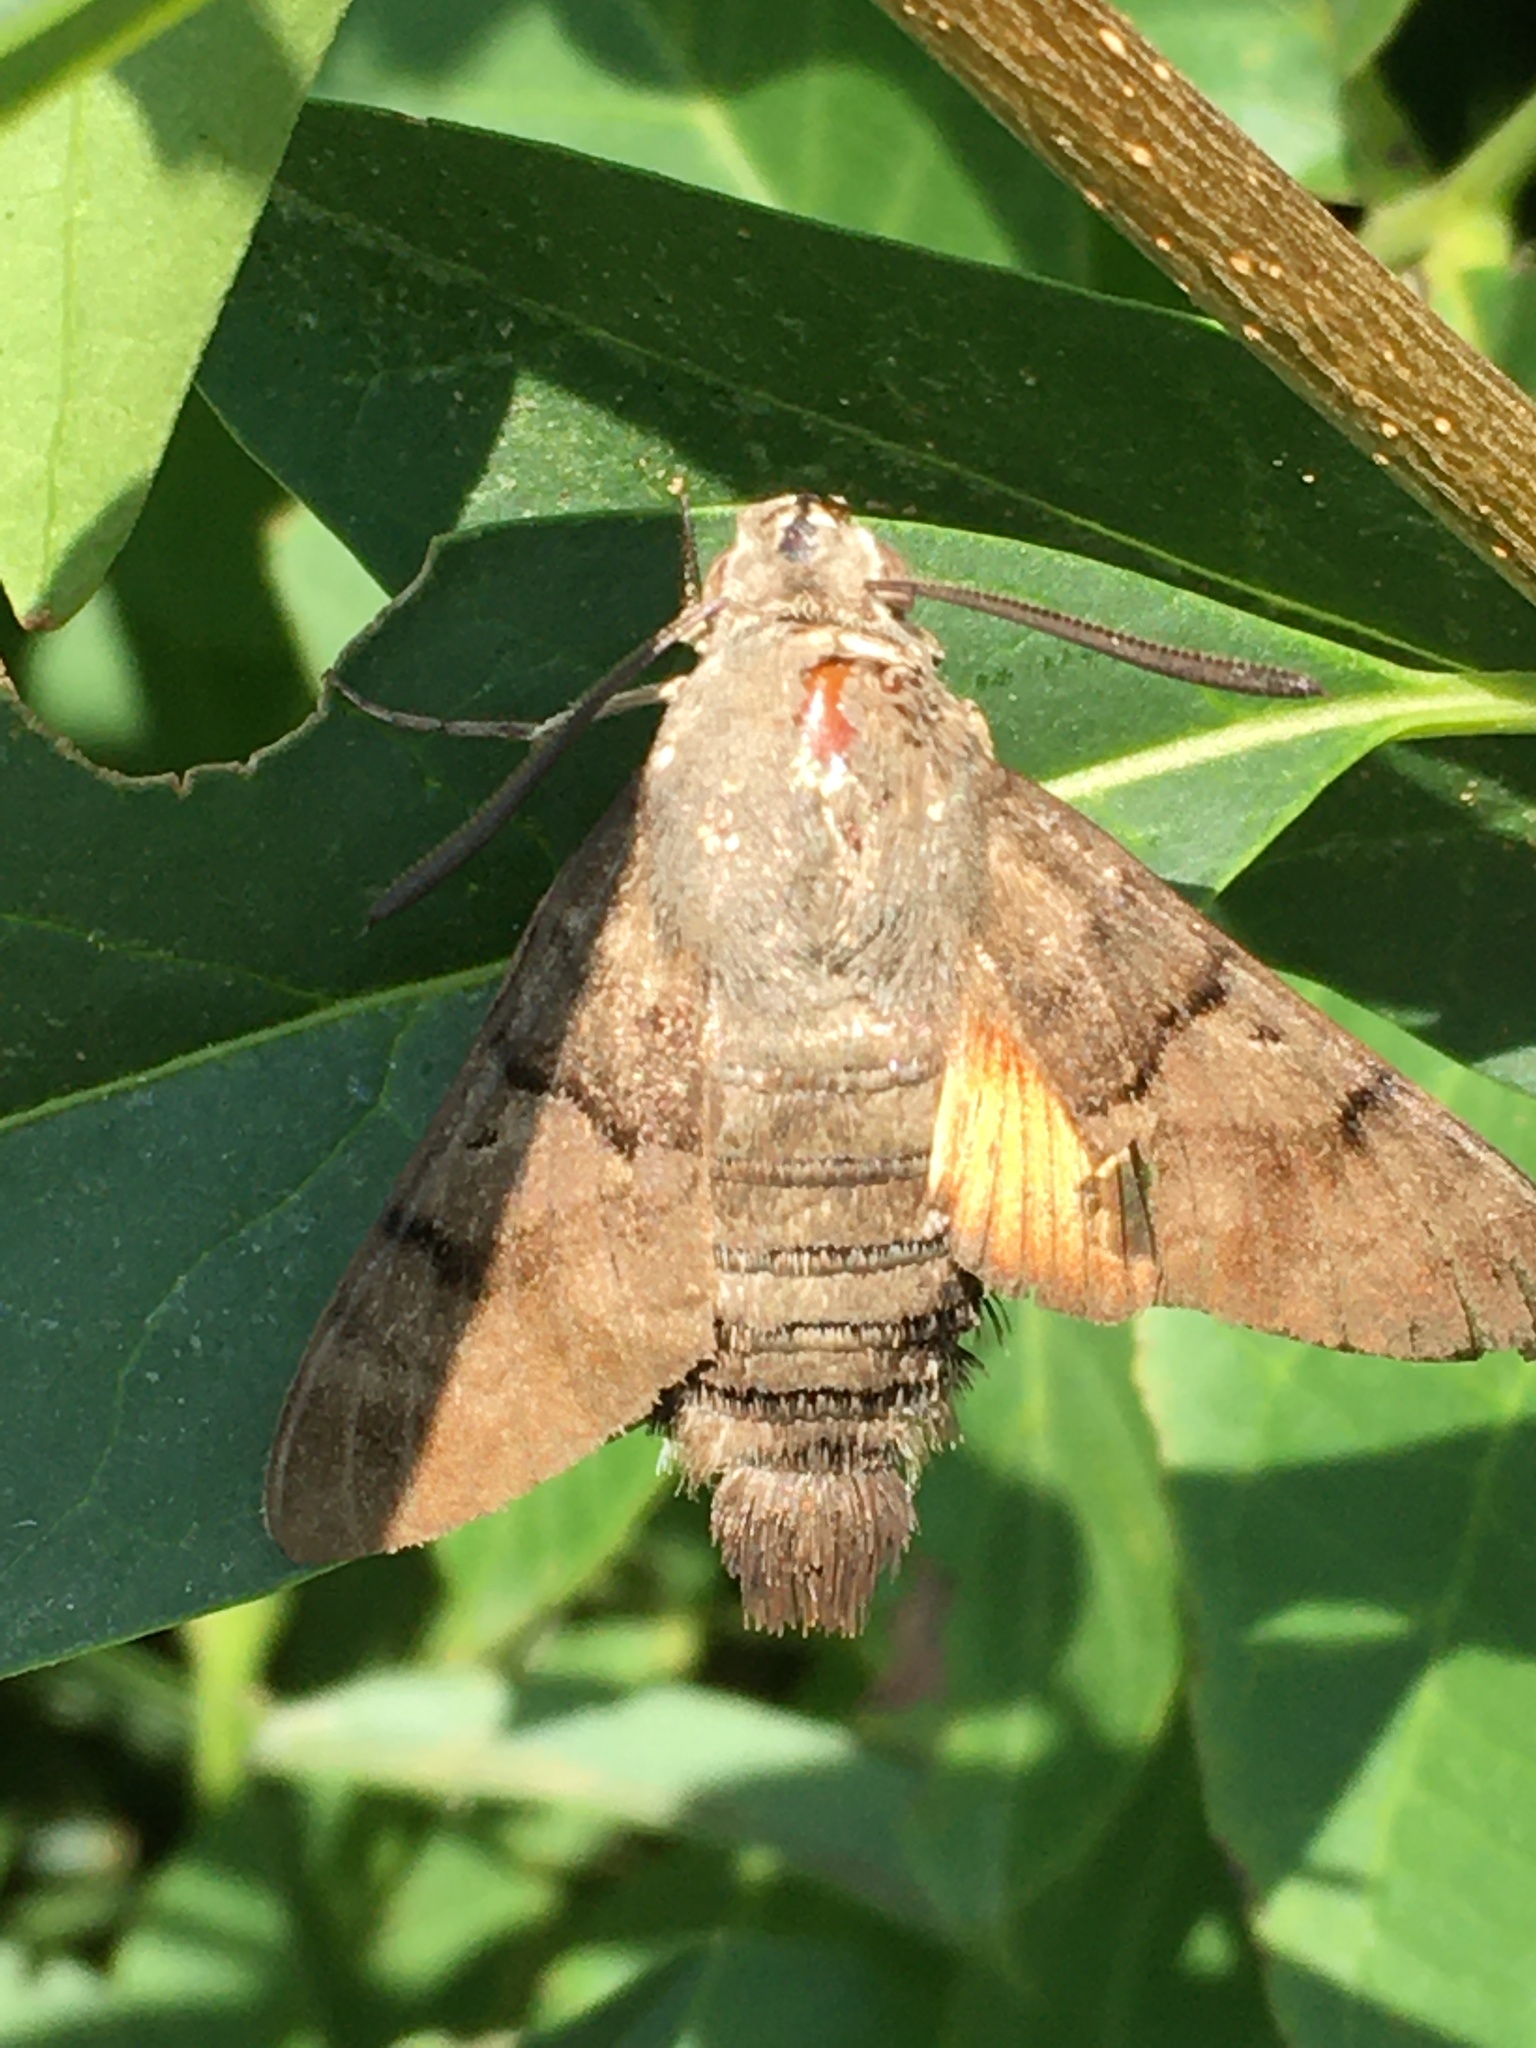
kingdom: Animalia
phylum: Arthropoda
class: Insecta
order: Lepidoptera
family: Sphingidae
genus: Macroglossum
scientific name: Macroglossum stellatarum
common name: Humming-bird hawk-moth
